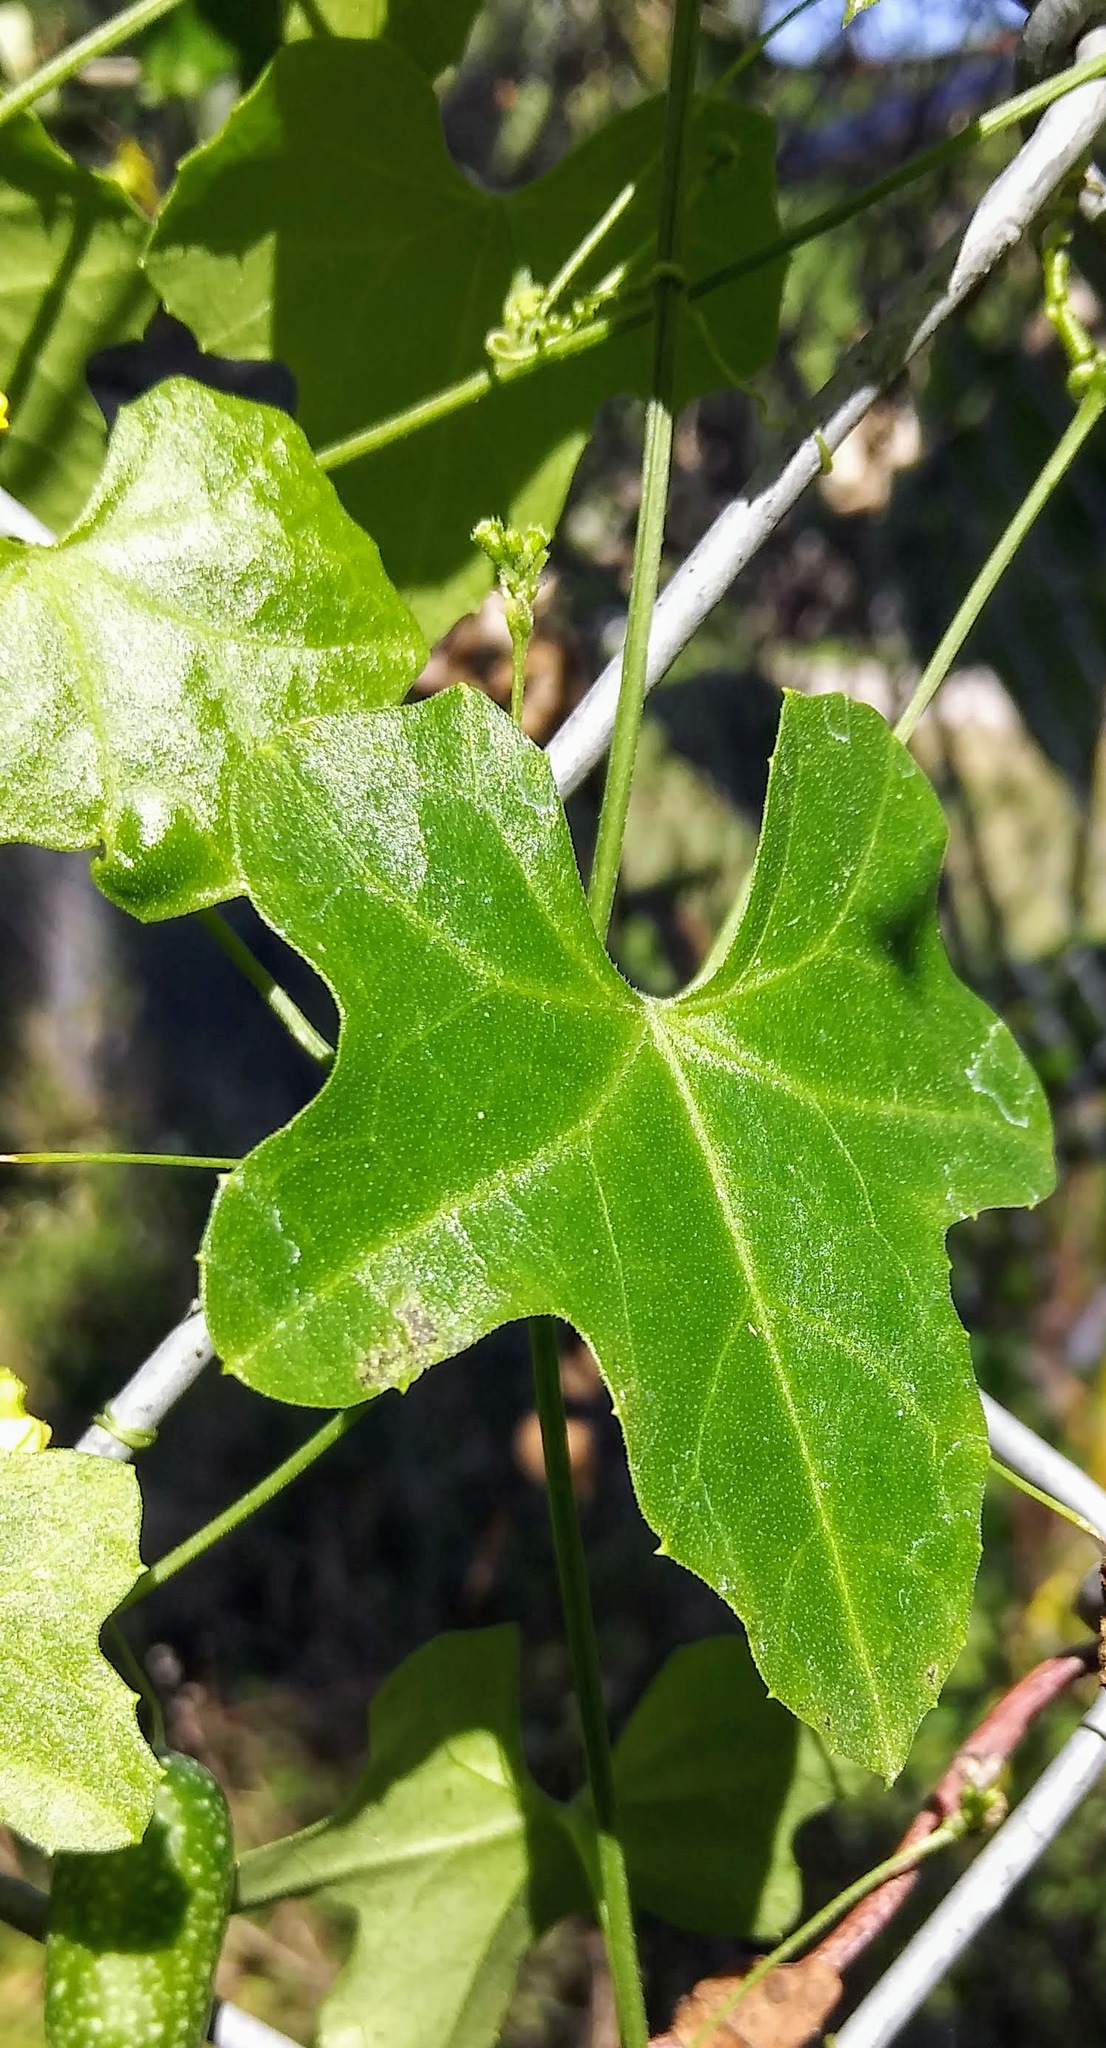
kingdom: Plantae
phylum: Tracheophyta
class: Magnoliopsida
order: Cucurbitales
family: Cucurbitaceae
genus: Melothria
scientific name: Melothria pendula
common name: Creeping-cucumber
